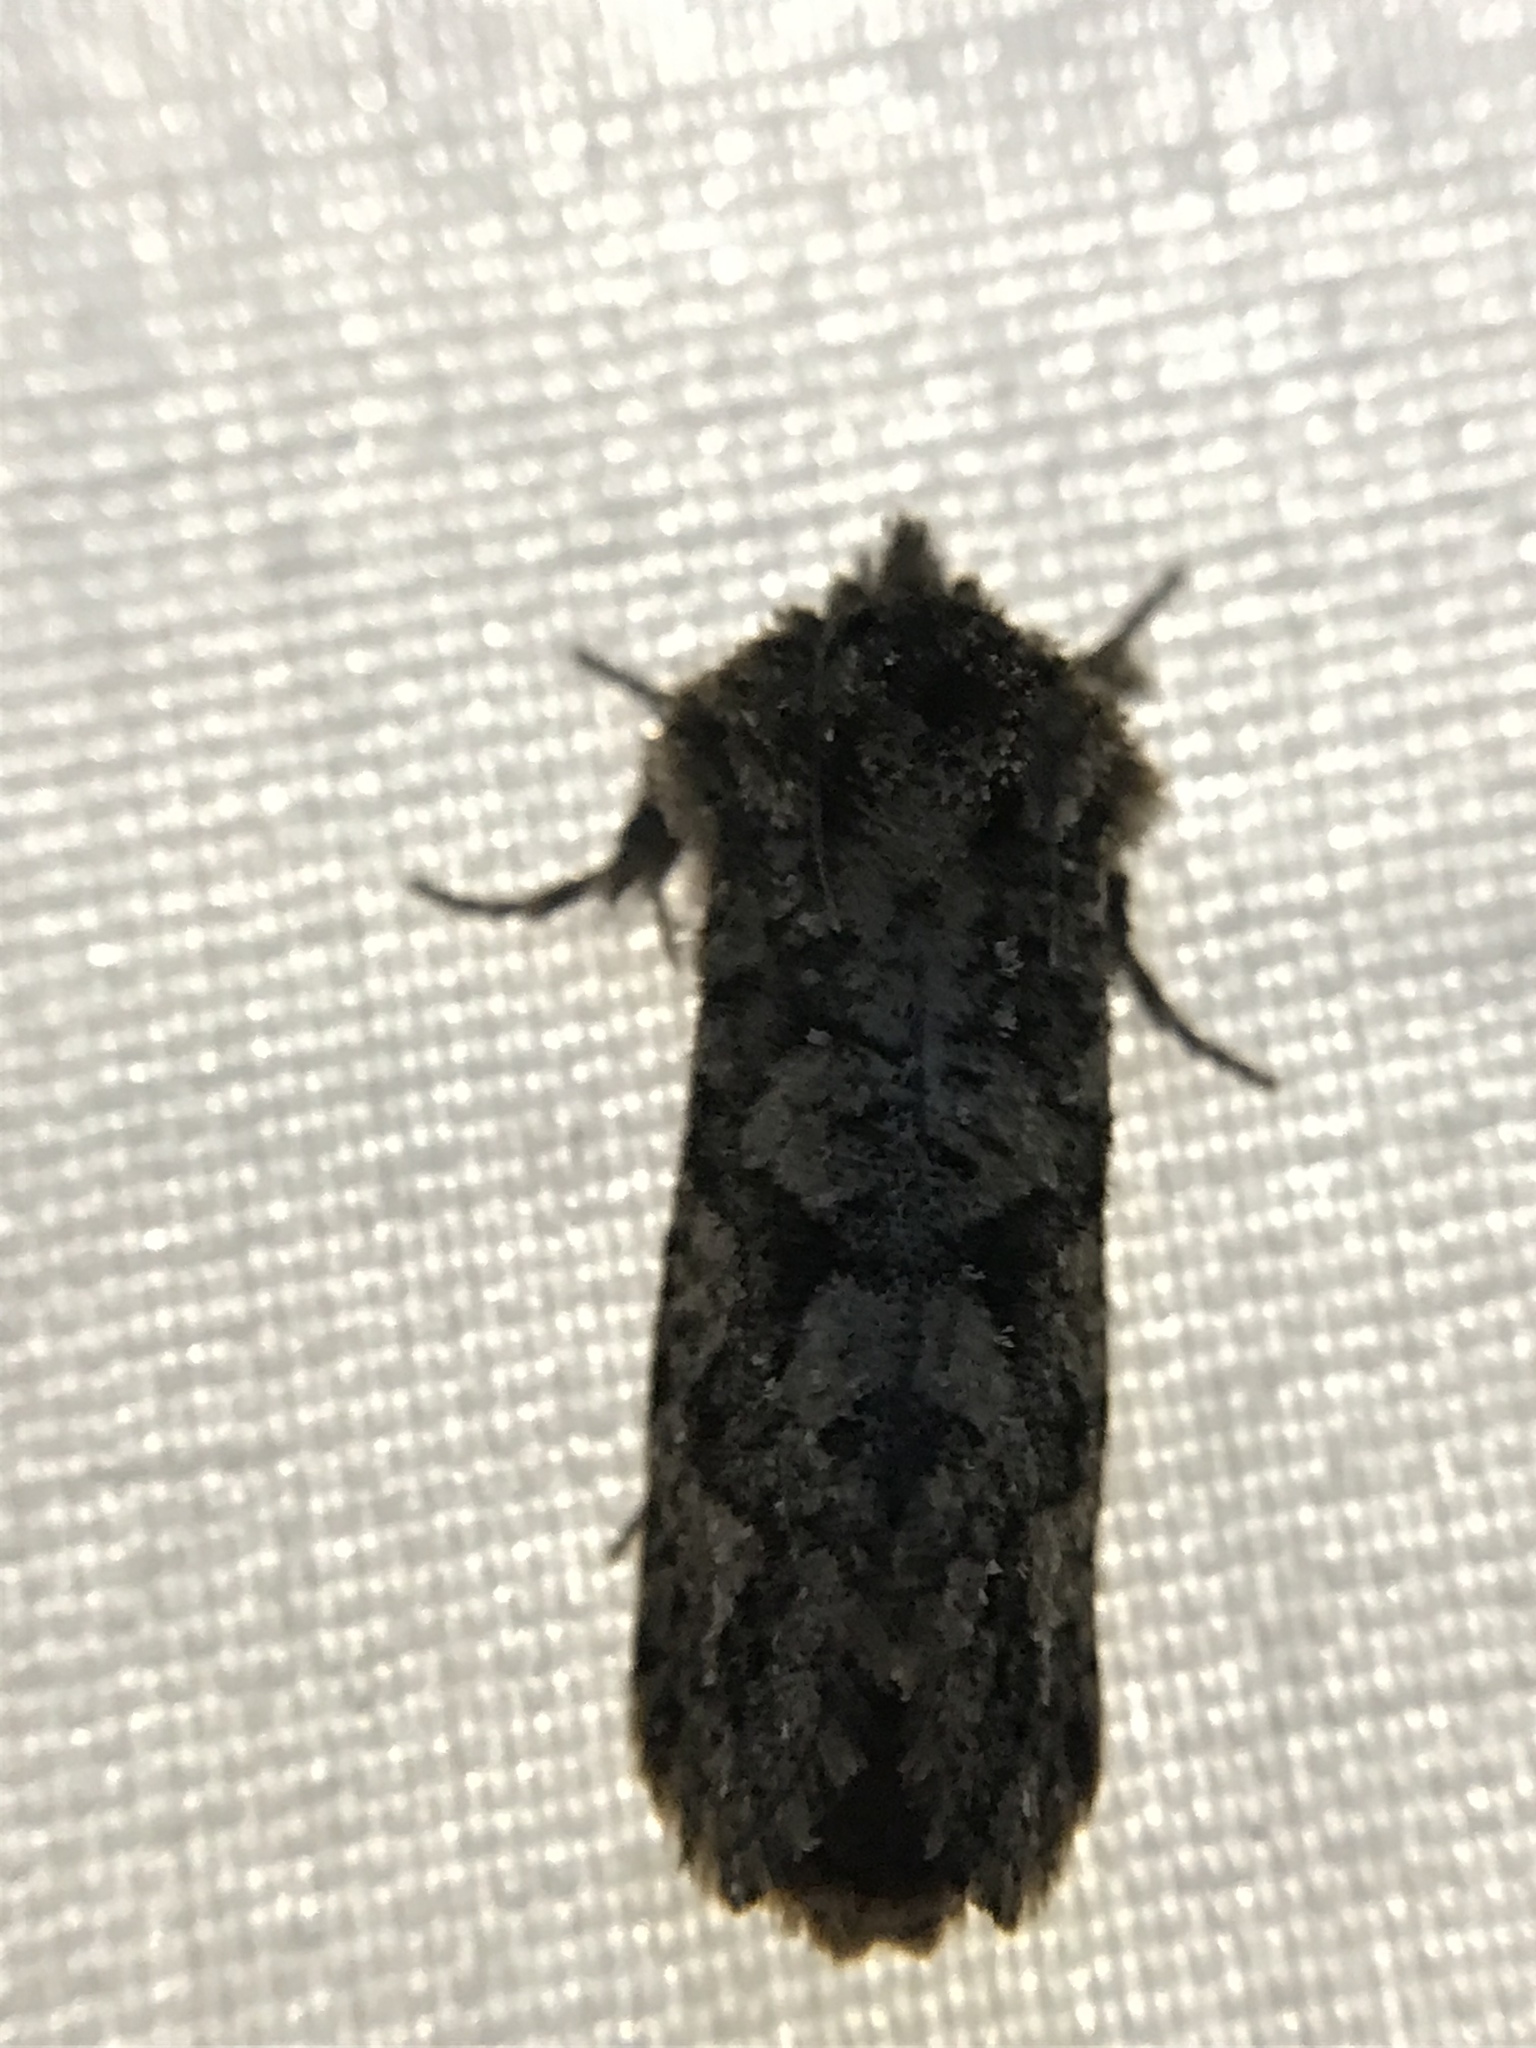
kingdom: Animalia
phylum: Arthropoda
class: Insecta
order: Lepidoptera
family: Tineidae
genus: Acrolophus
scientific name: Acrolophus arcanella
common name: Arcane grass tubeworm moth
